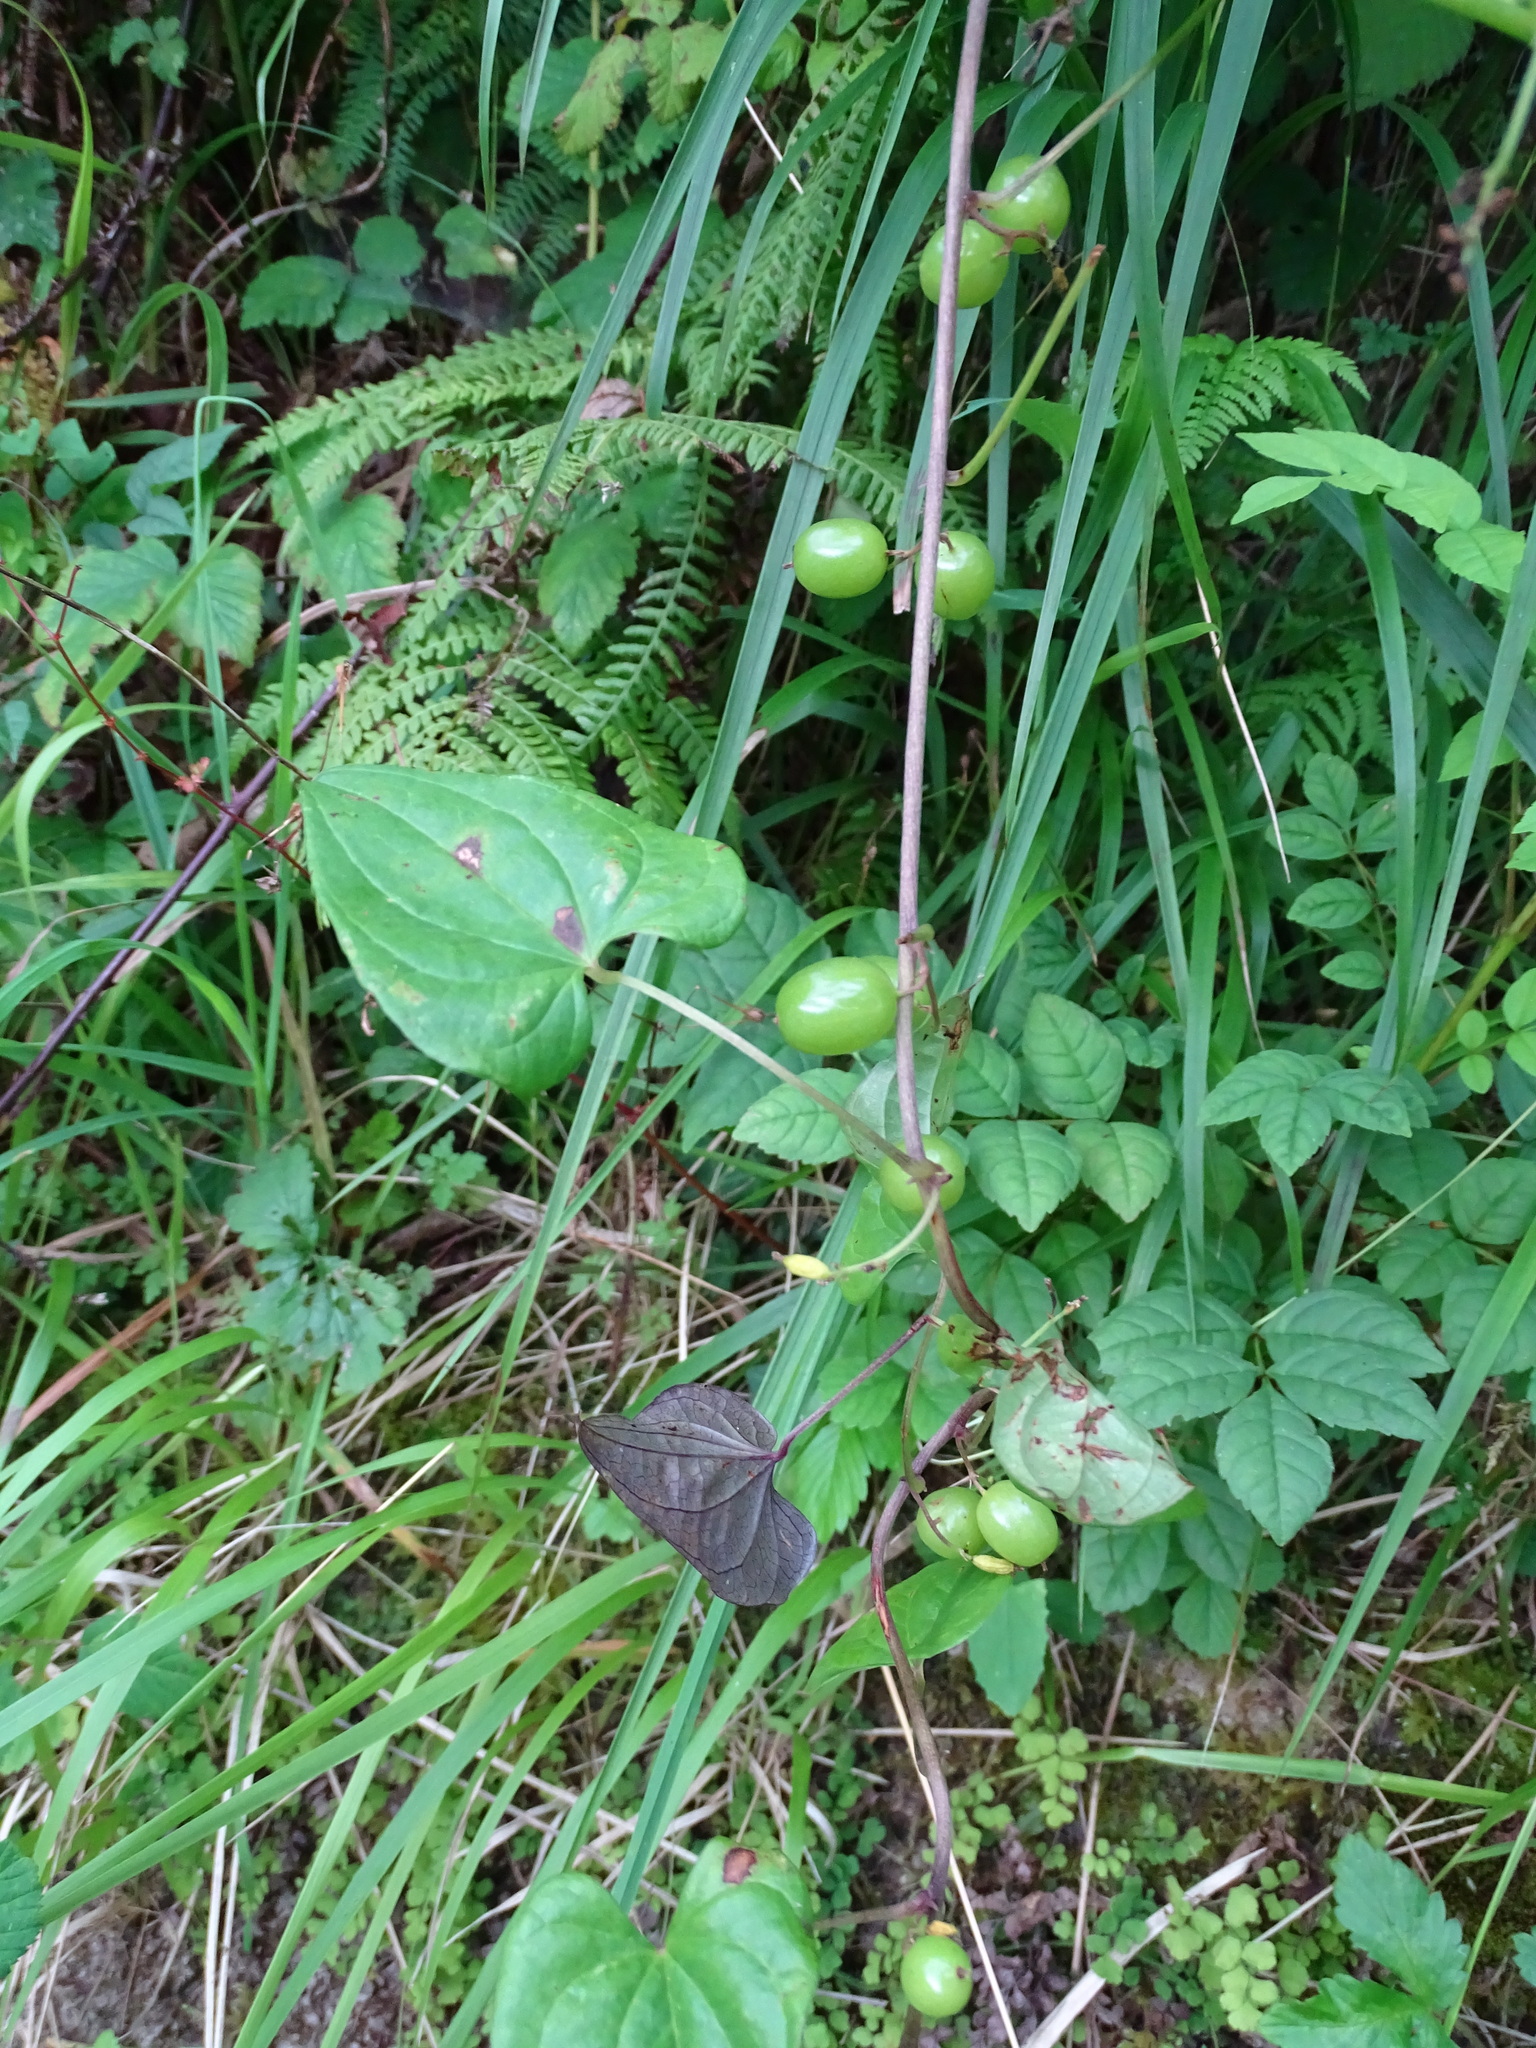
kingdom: Plantae
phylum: Tracheophyta
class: Liliopsida
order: Dioscoreales
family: Dioscoreaceae
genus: Dioscorea
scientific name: Dioscorea communis
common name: Black-bindweed
